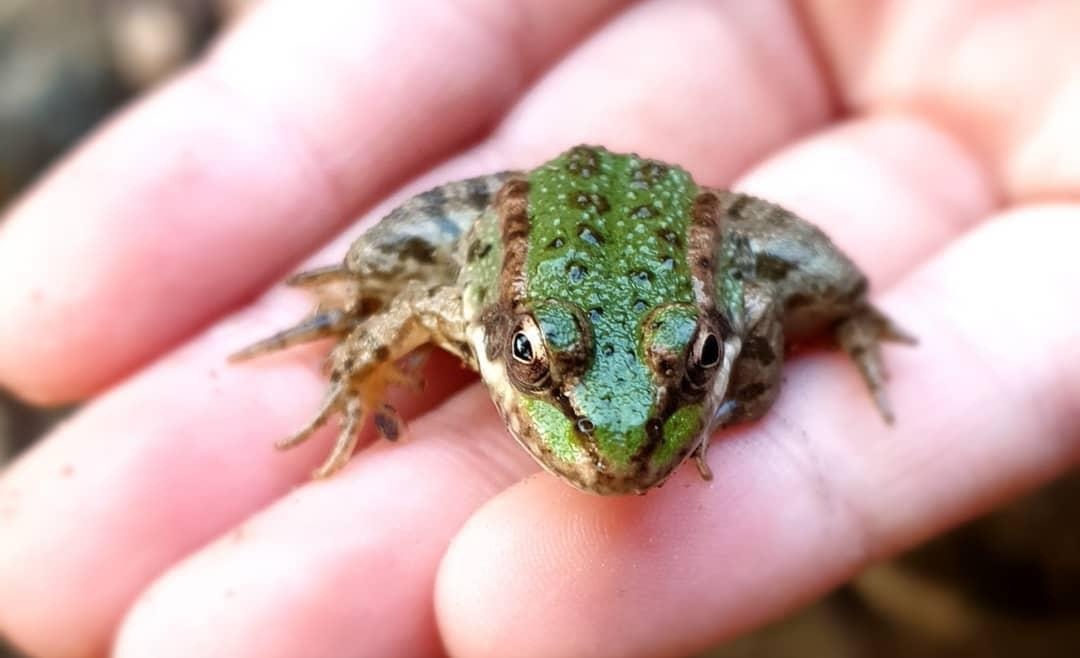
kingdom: Animalia
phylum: Chordata
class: Amphibia
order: Anura
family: Ranidae
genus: Pelophylax
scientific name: Pelophylax
